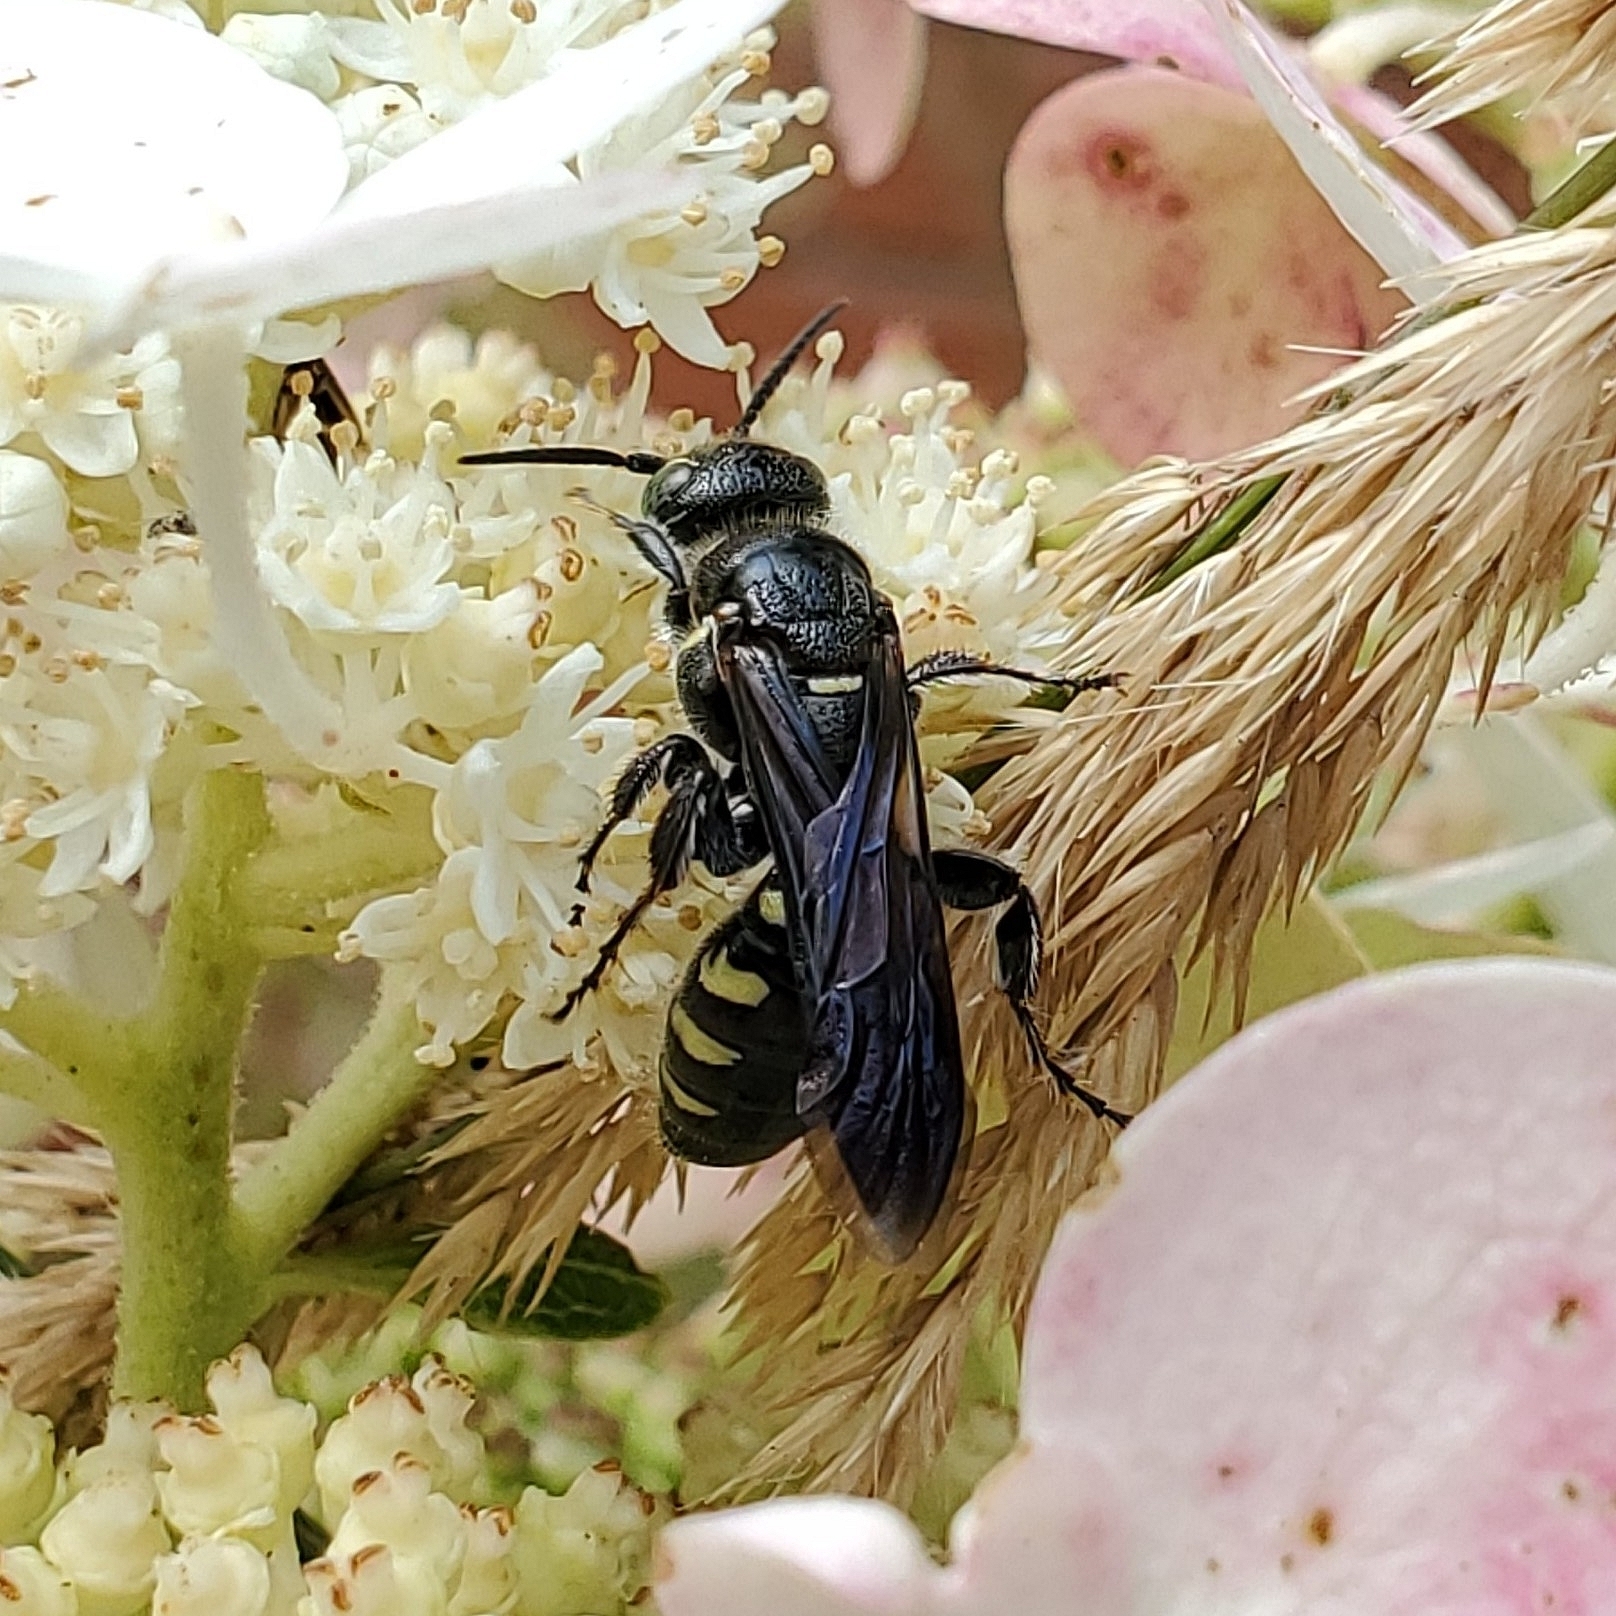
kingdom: Animalia
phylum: Arthropoda
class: Insecta
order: Hymenoptera
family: Tiphiidae
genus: Myzinum
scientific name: Myzinum obscurum
